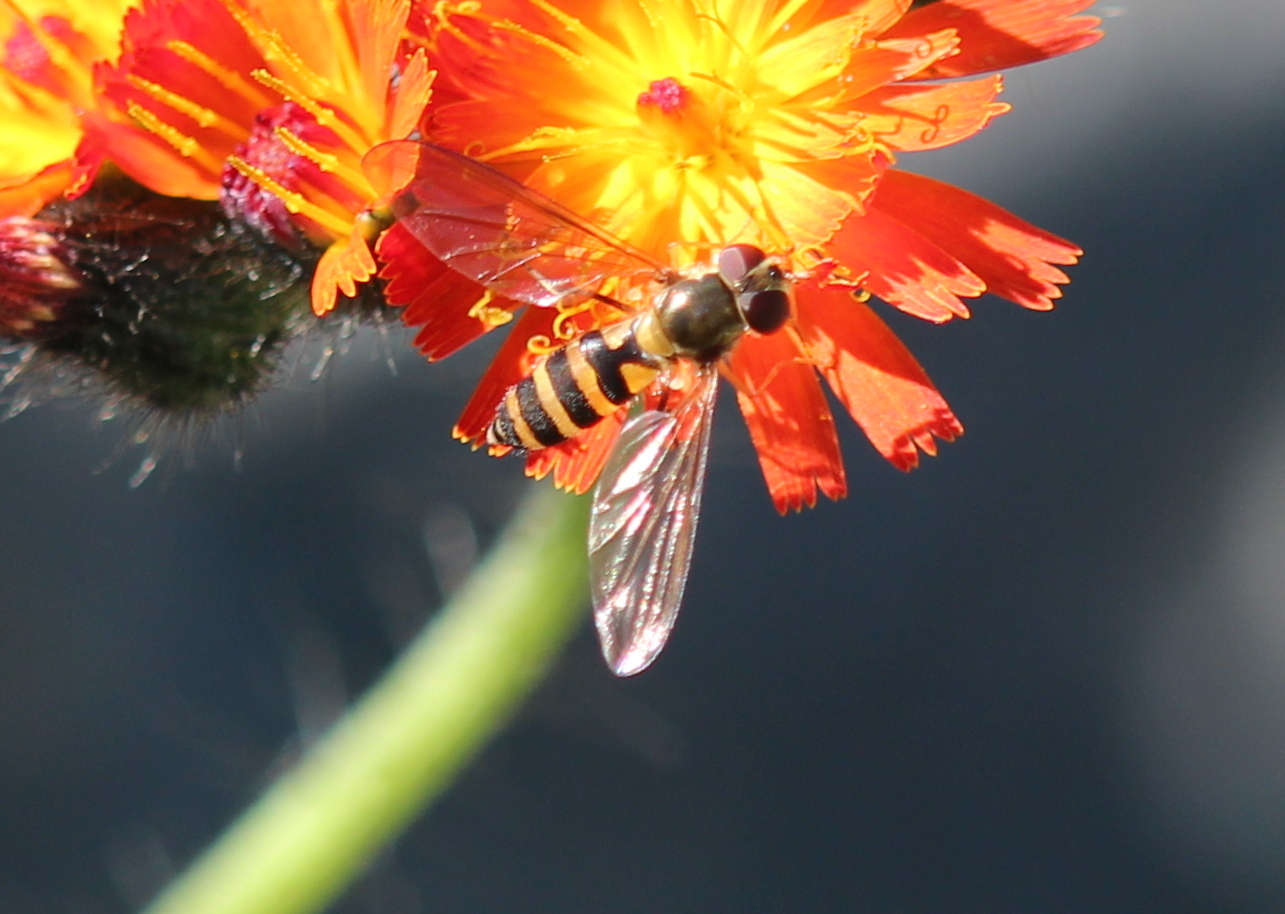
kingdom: Animalia
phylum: Arthropoda
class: Insecta
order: Diptera
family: Syrphidae
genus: Meliscaeva
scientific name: Meliscaeva cinctella
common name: American thintail fly
